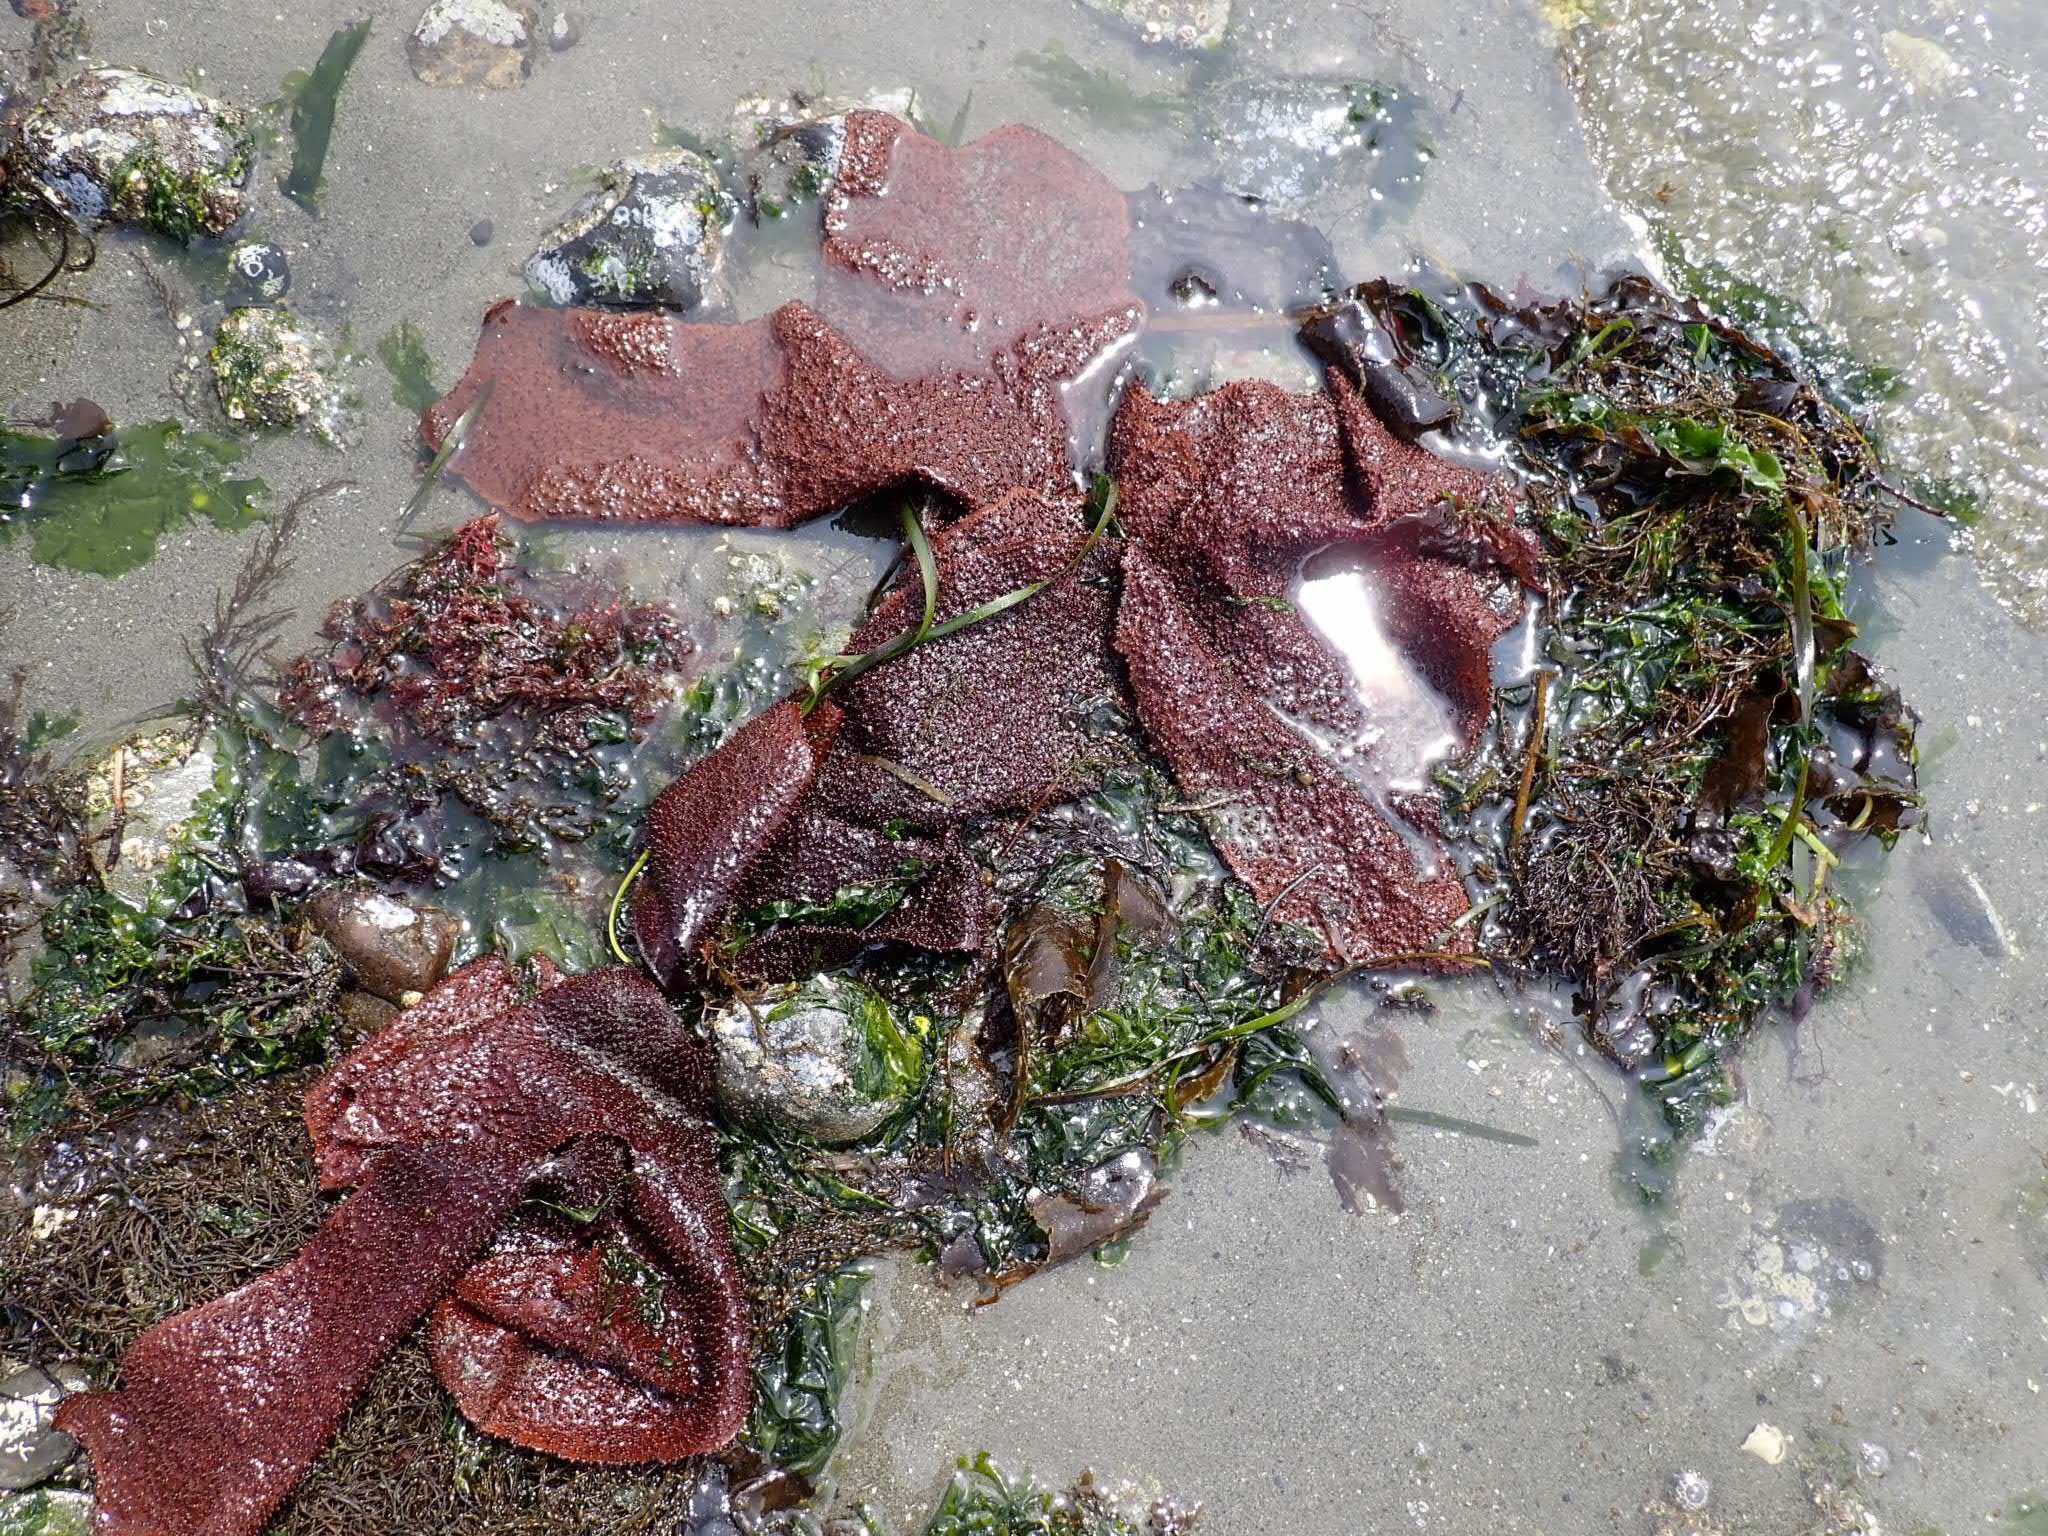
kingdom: Plantae
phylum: Rhodophyta
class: Florideophyceae
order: Gigartinales
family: Gigartinaceae
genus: Chondracanthus
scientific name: Chondracanthus exasperatus
